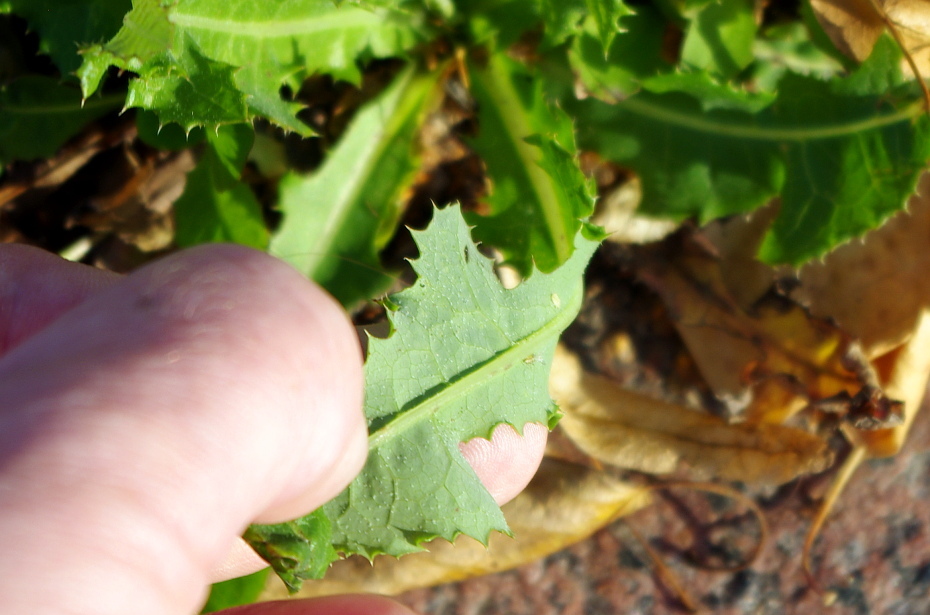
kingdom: Plantae
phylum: Tracheophyta
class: Magnoliopsida
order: Asterales
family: Asteraceae
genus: Sonchus
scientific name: Sonchus arvensis
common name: Perennial sow-thistle
